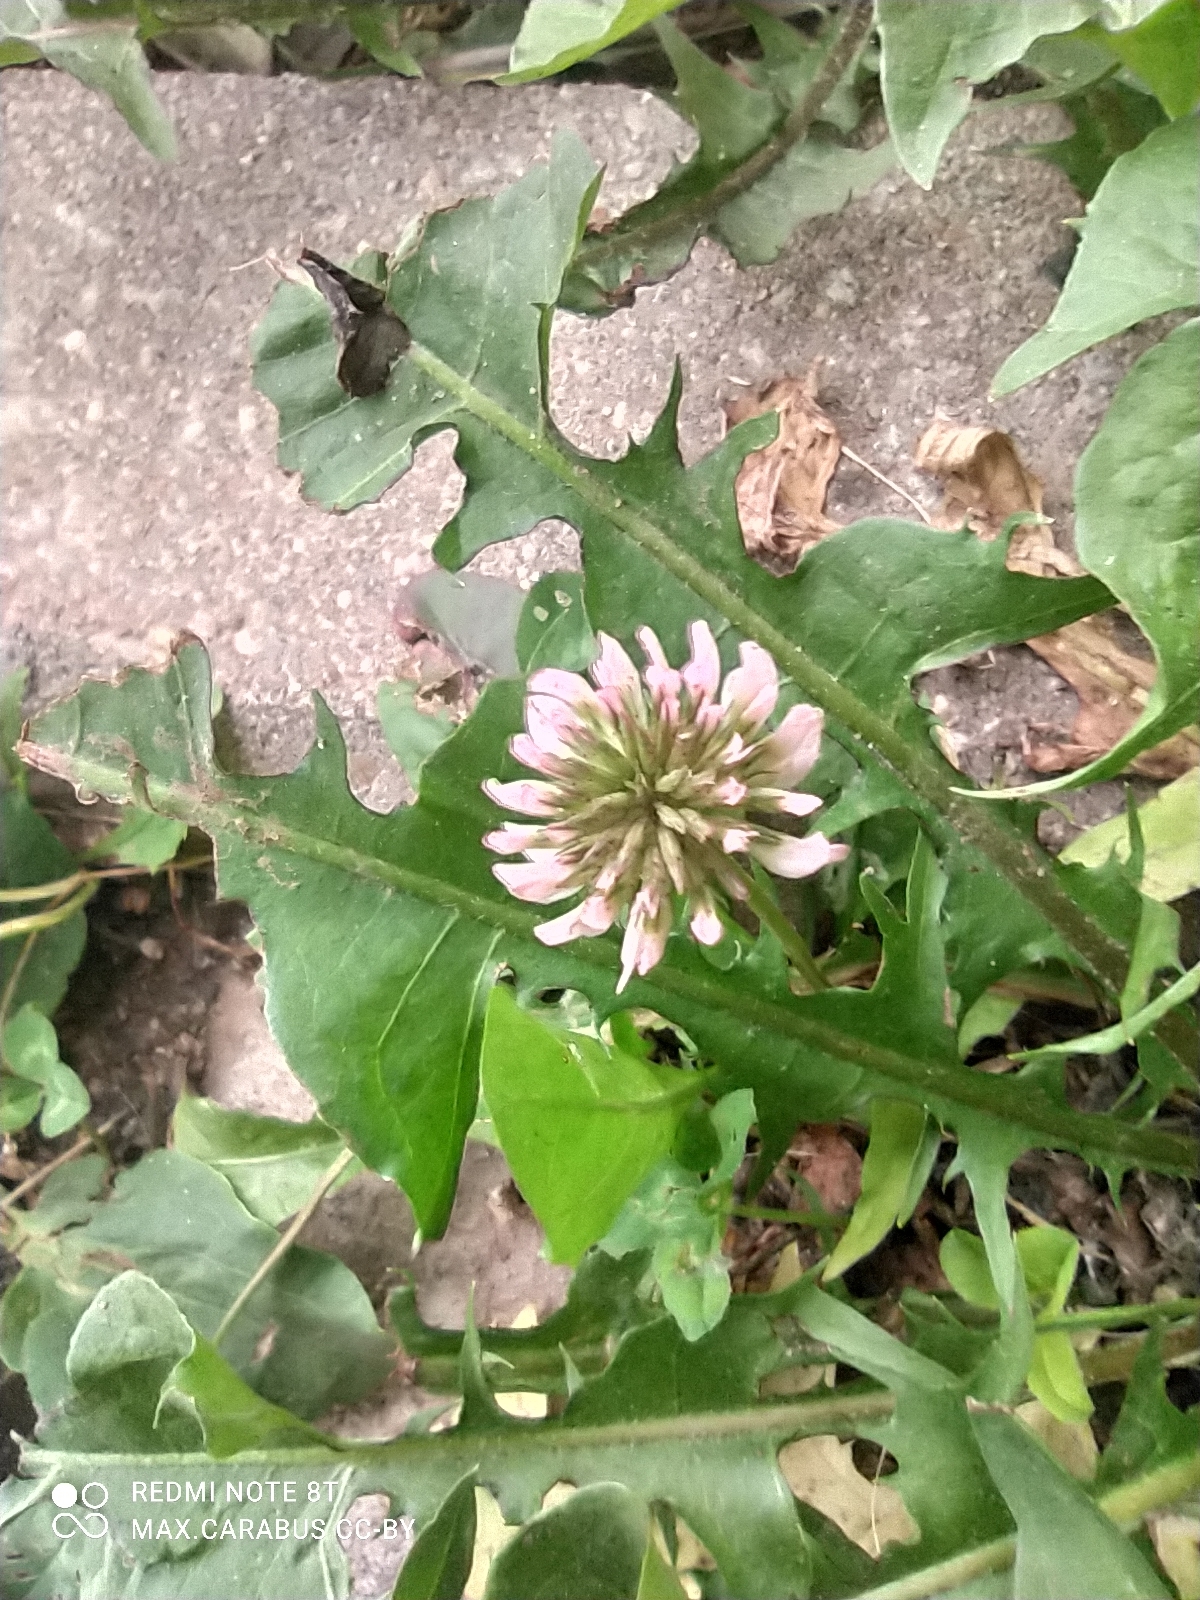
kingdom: Plantae
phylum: Tracheophyta
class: Magnoliopsida
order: Fabales
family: Fabaceae
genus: Trifolium
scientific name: Trifolium repens
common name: White clover
